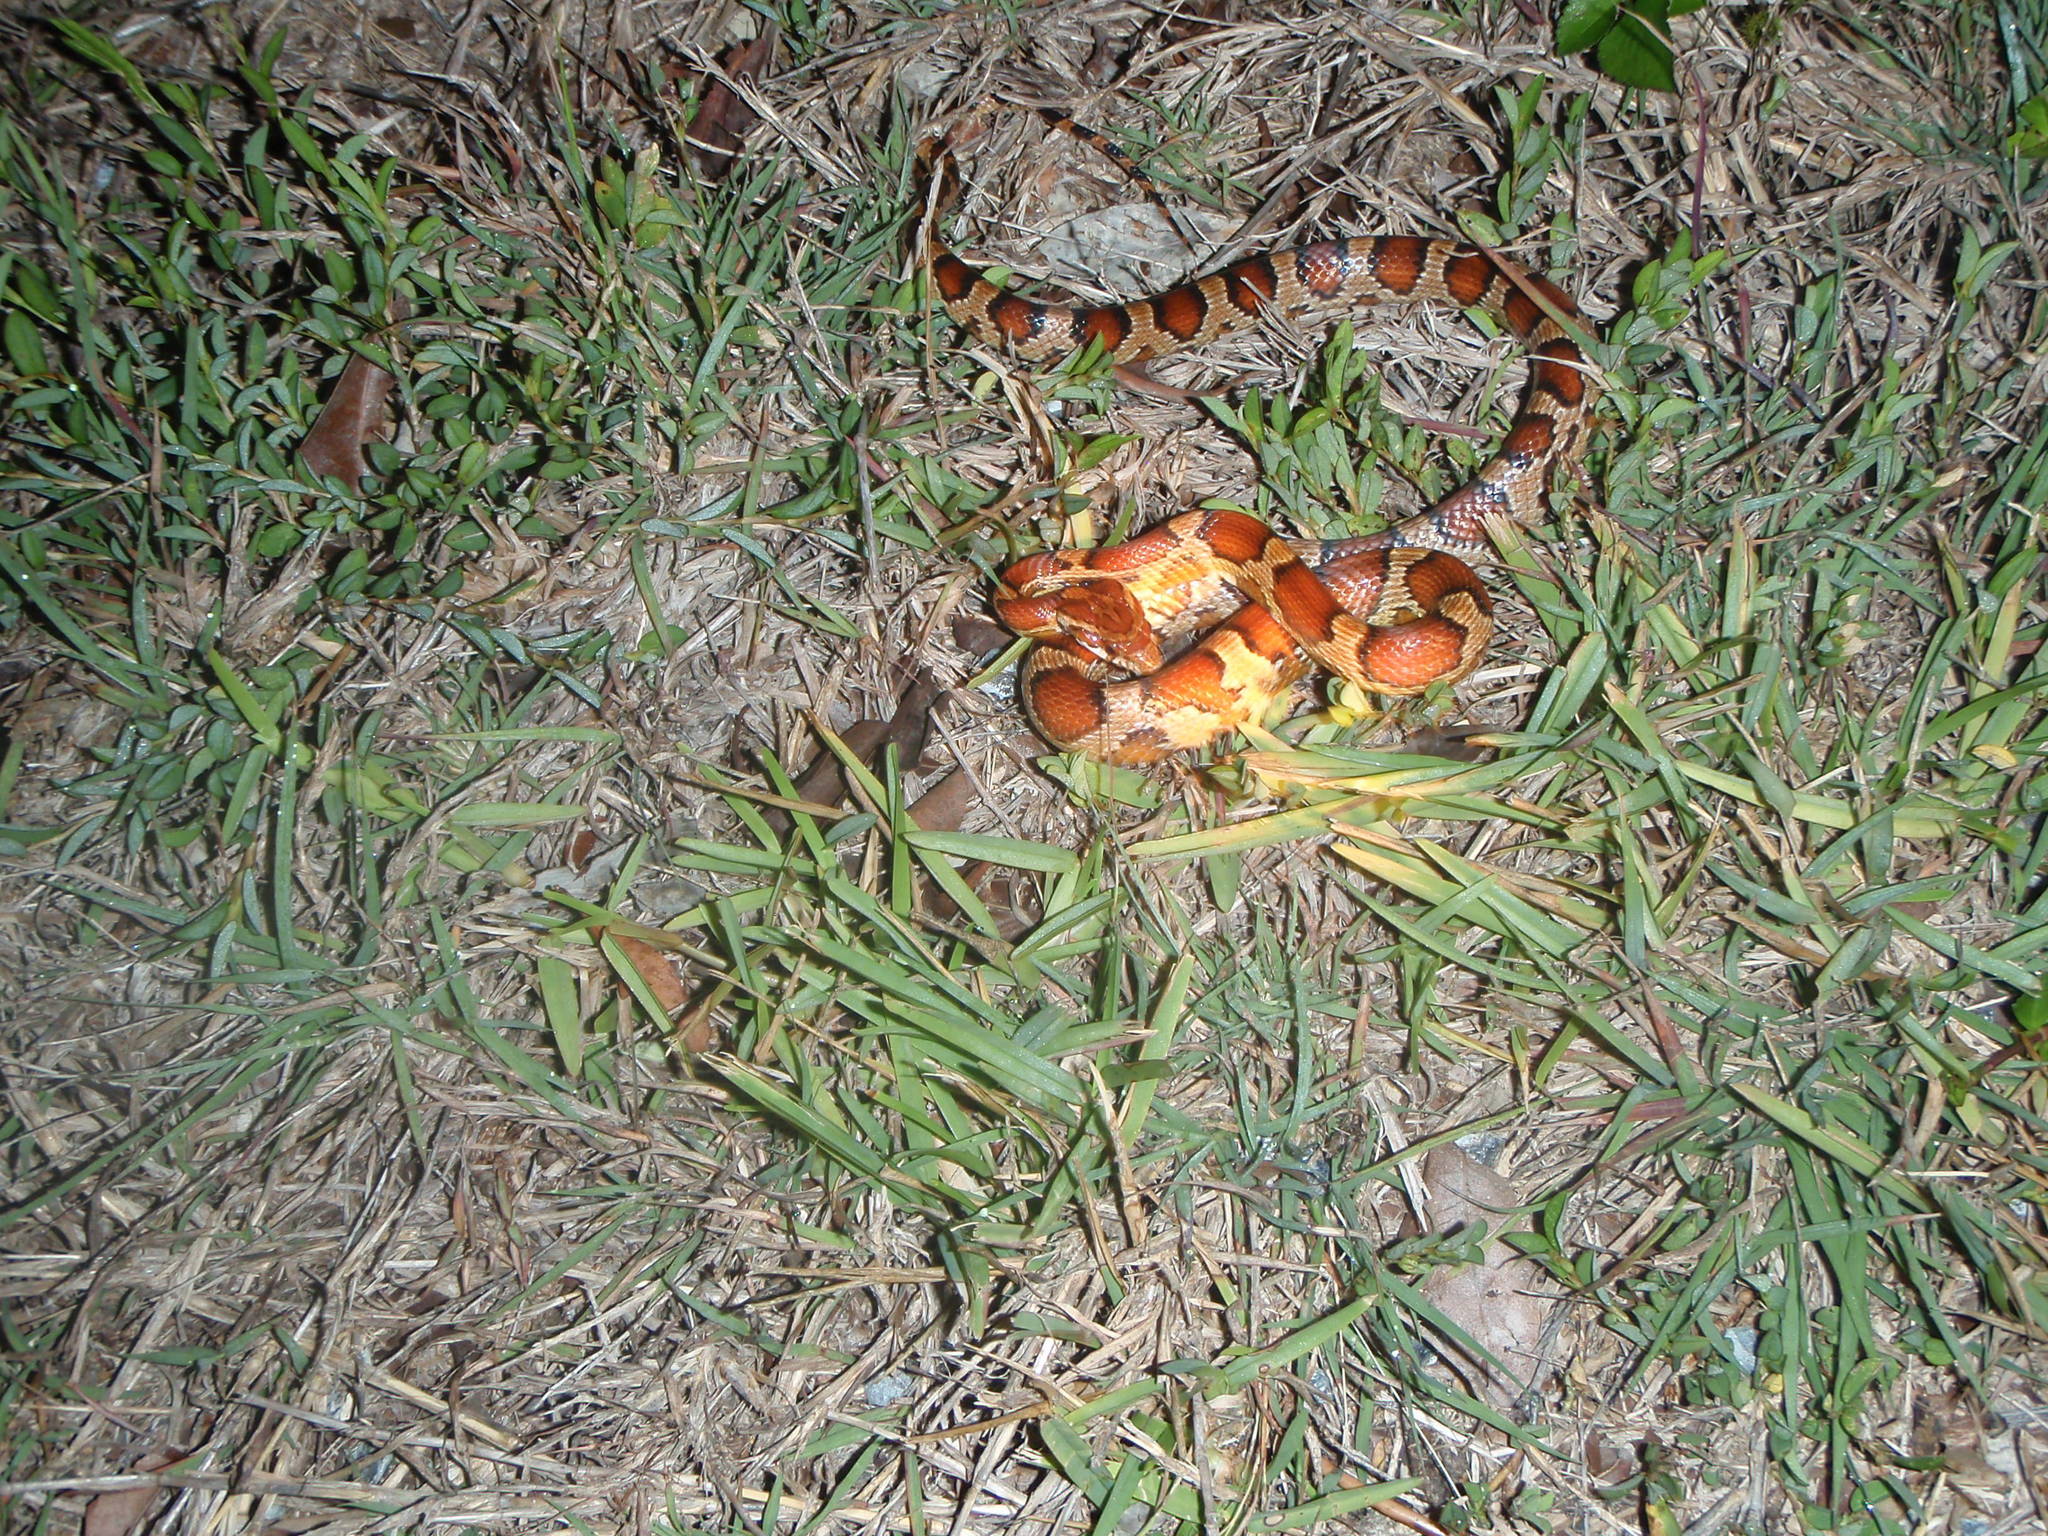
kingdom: Animalia
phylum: Chordata
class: Squamata
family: Colubridae
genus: Pantherophis
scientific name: Pantherophis guttatus
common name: Red cornsnake
